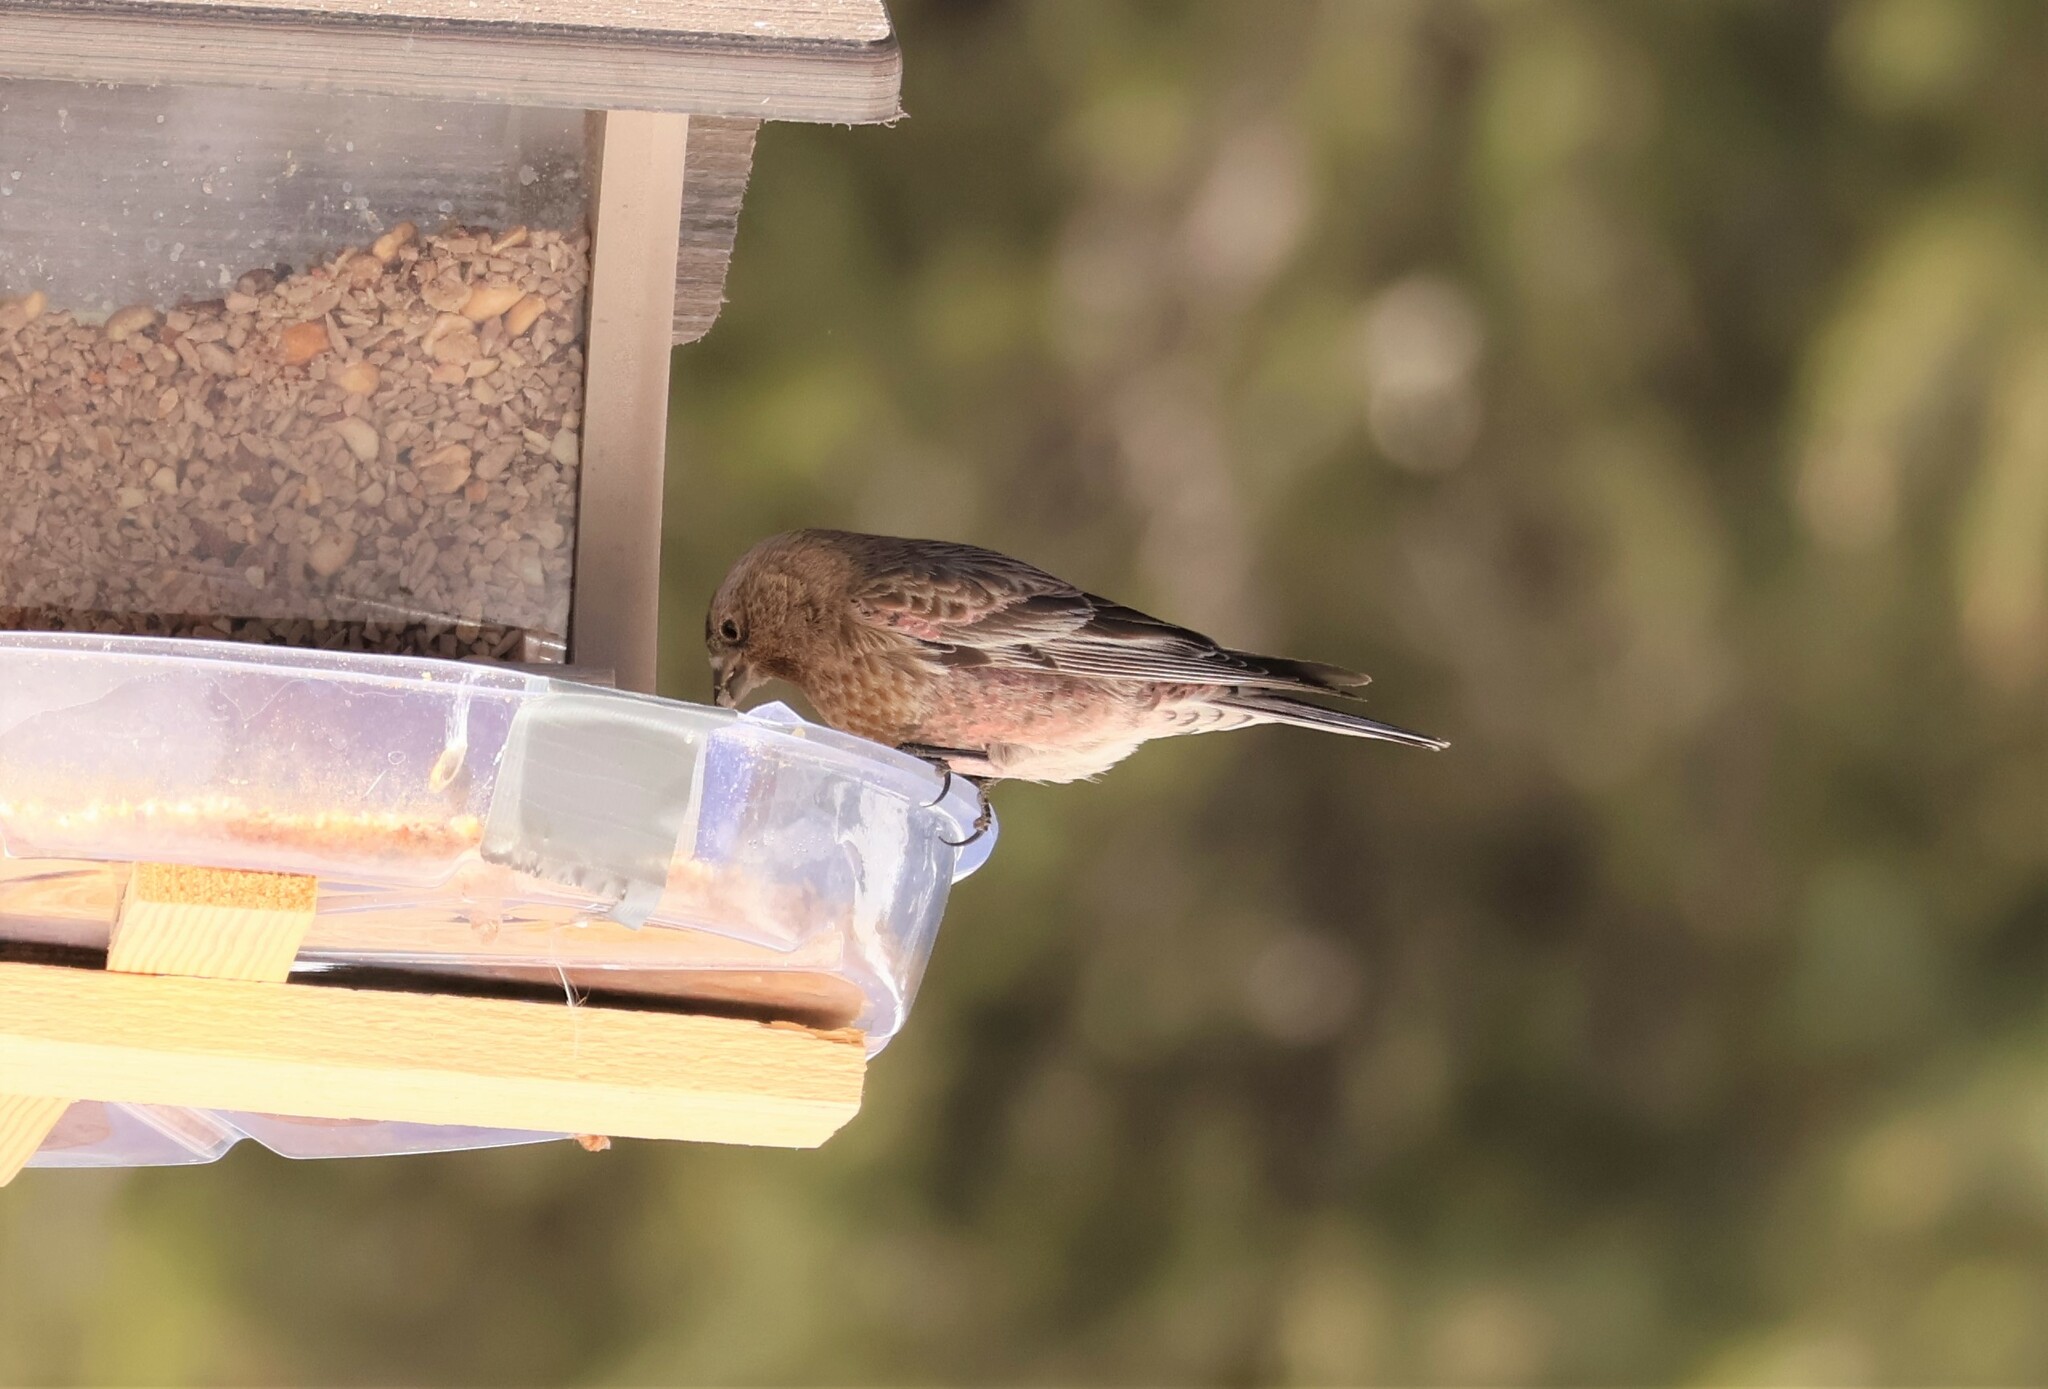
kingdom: Animalia
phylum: Chordata
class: Aves
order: Passeriformes
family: Fringillidae
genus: Leucosticte
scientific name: Leucosticte australis
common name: Brown-capped rosy-finch
